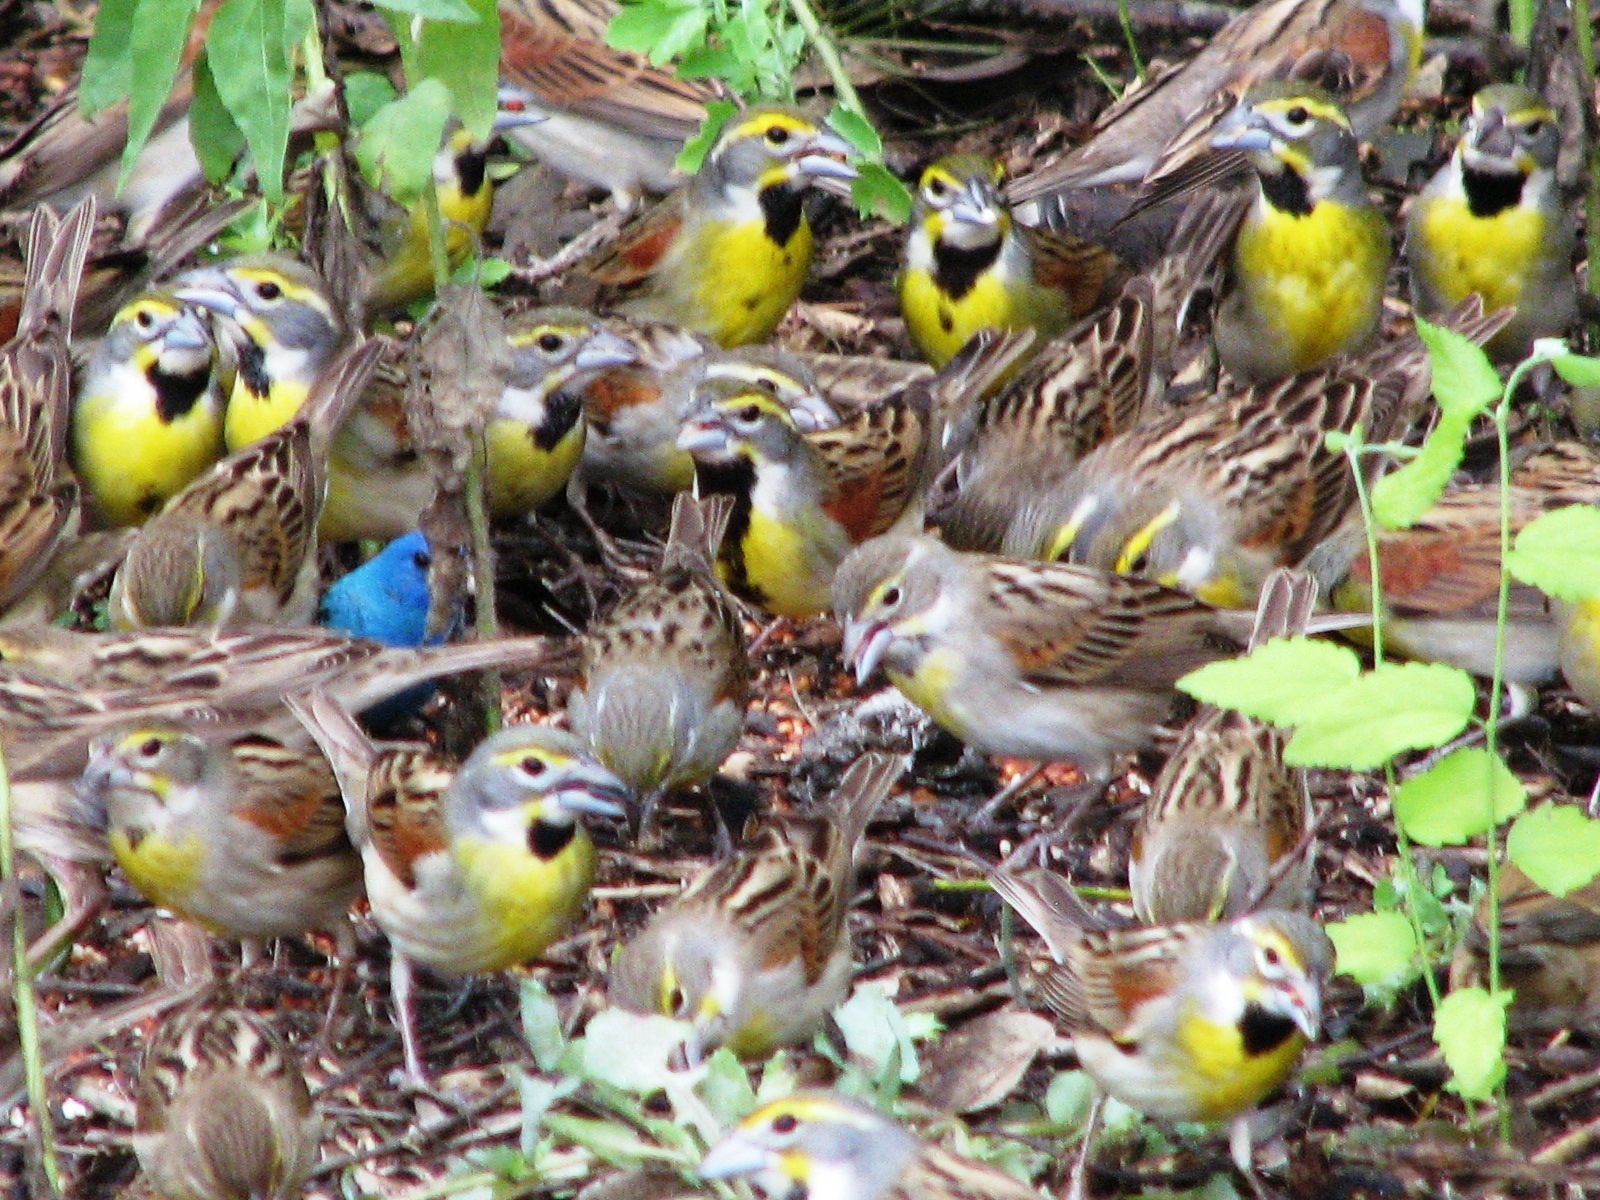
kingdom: Animalia
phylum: Chordata
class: Aves
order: Passeriformes
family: Cardinalidae
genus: Spiza
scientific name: Spiza americana
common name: Dickcissel
